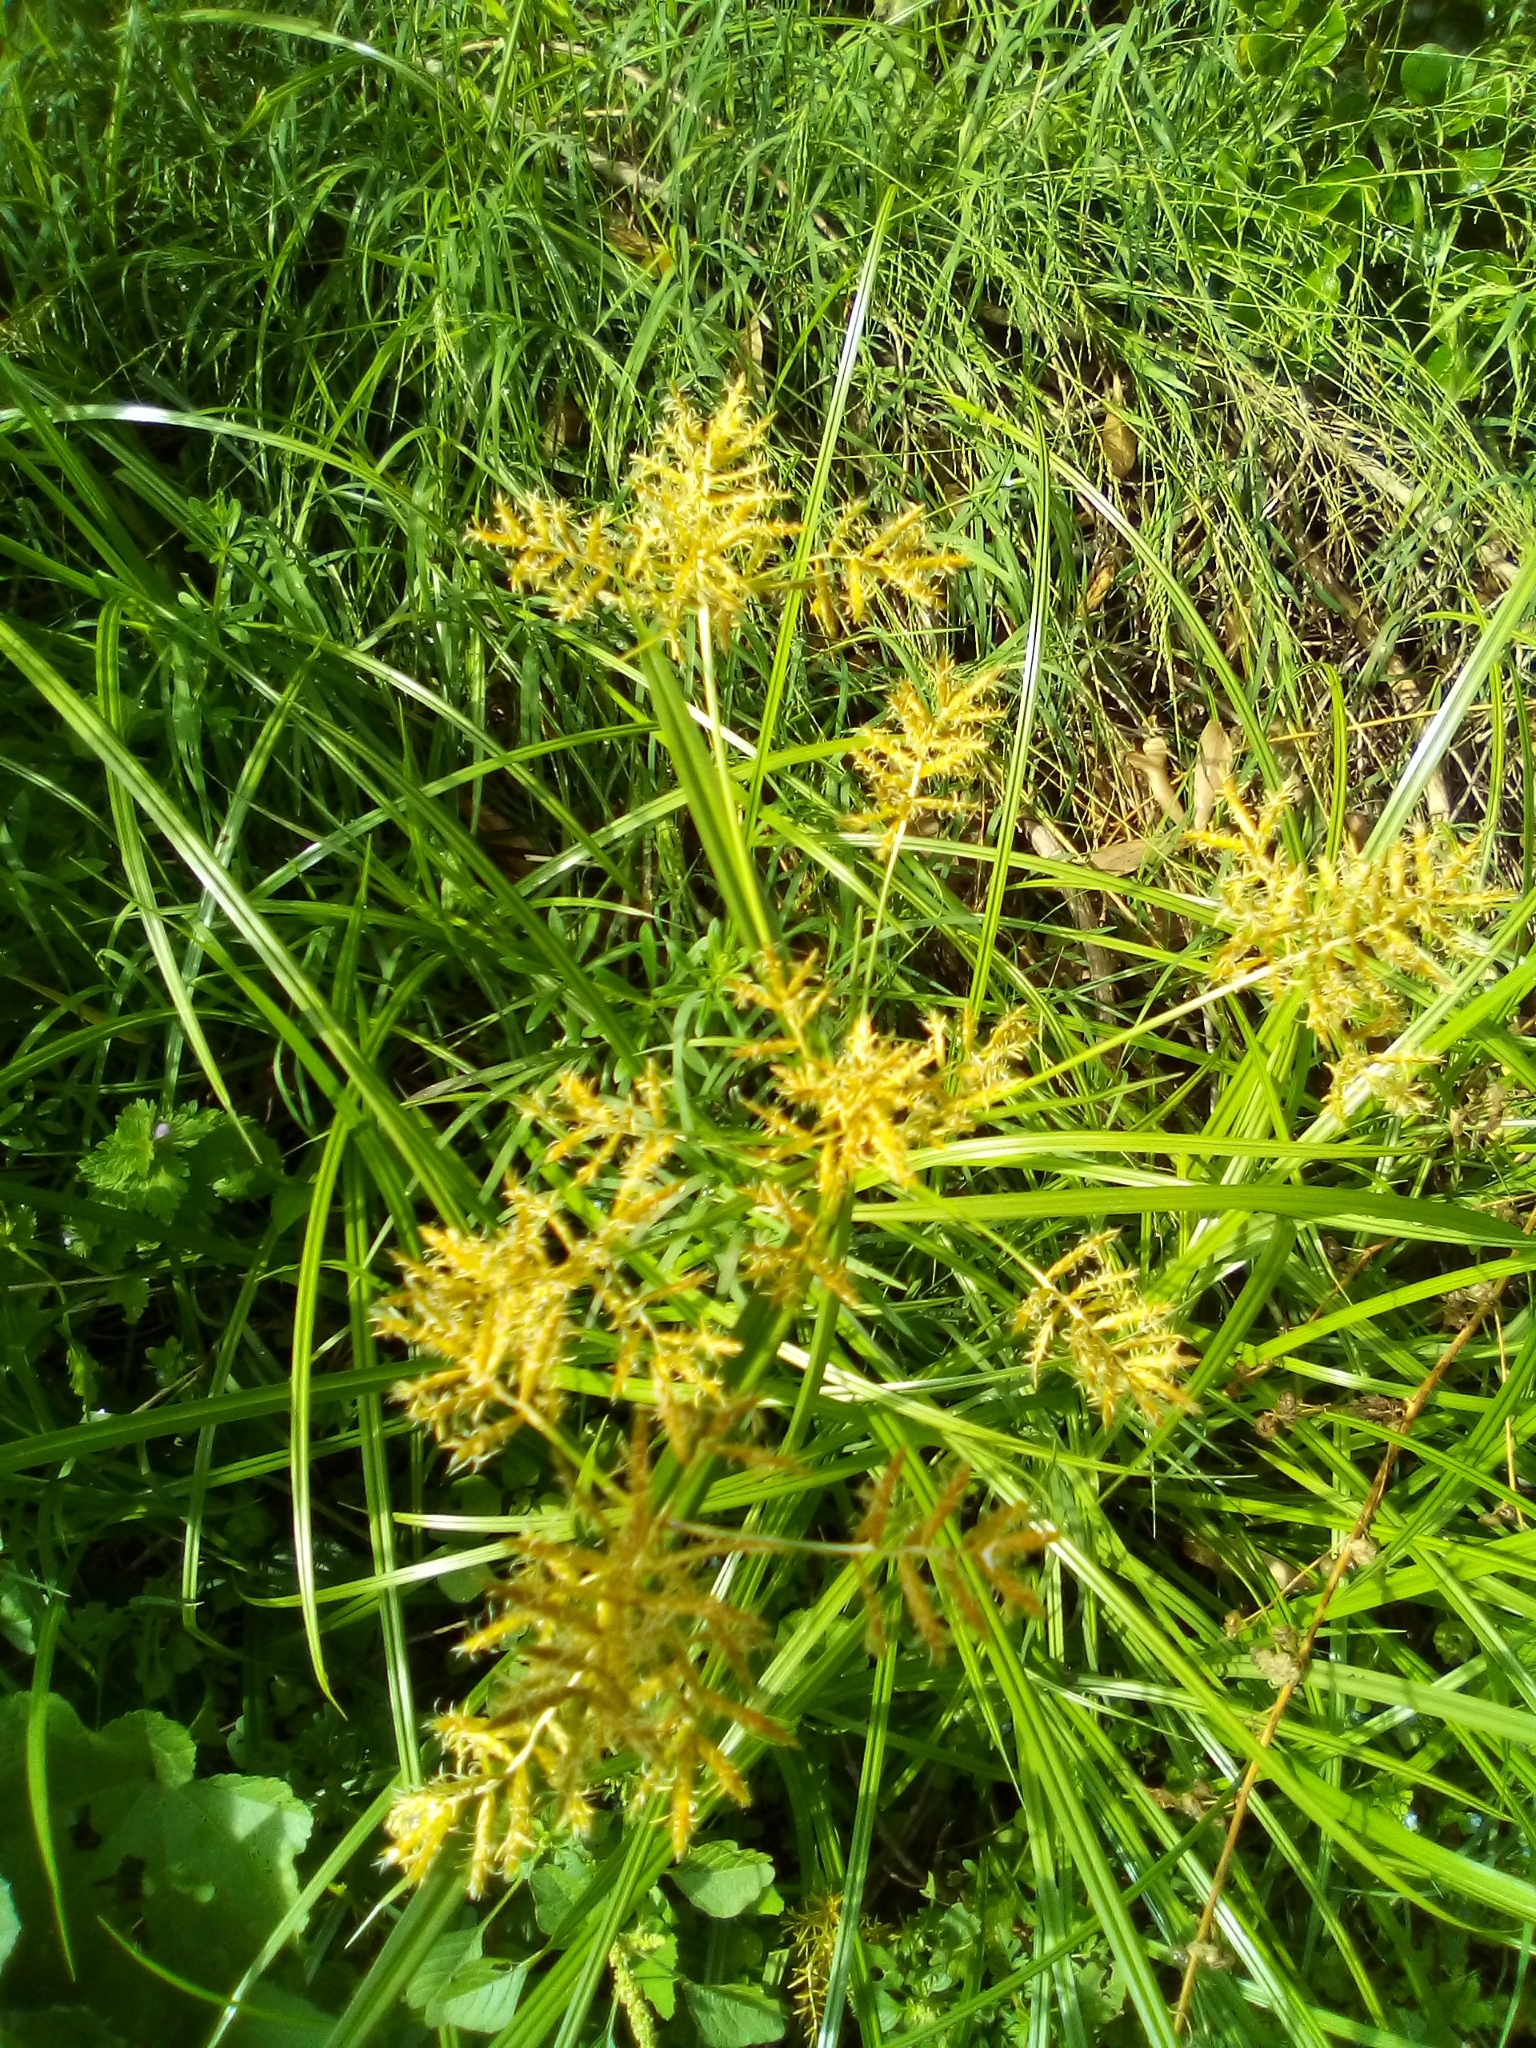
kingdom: Plantae
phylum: Tracheophyta
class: Liliopsida
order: Poales
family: Cyperaceae
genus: Cyperus
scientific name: Cyperus esculentus
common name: Yellow nutsedge
